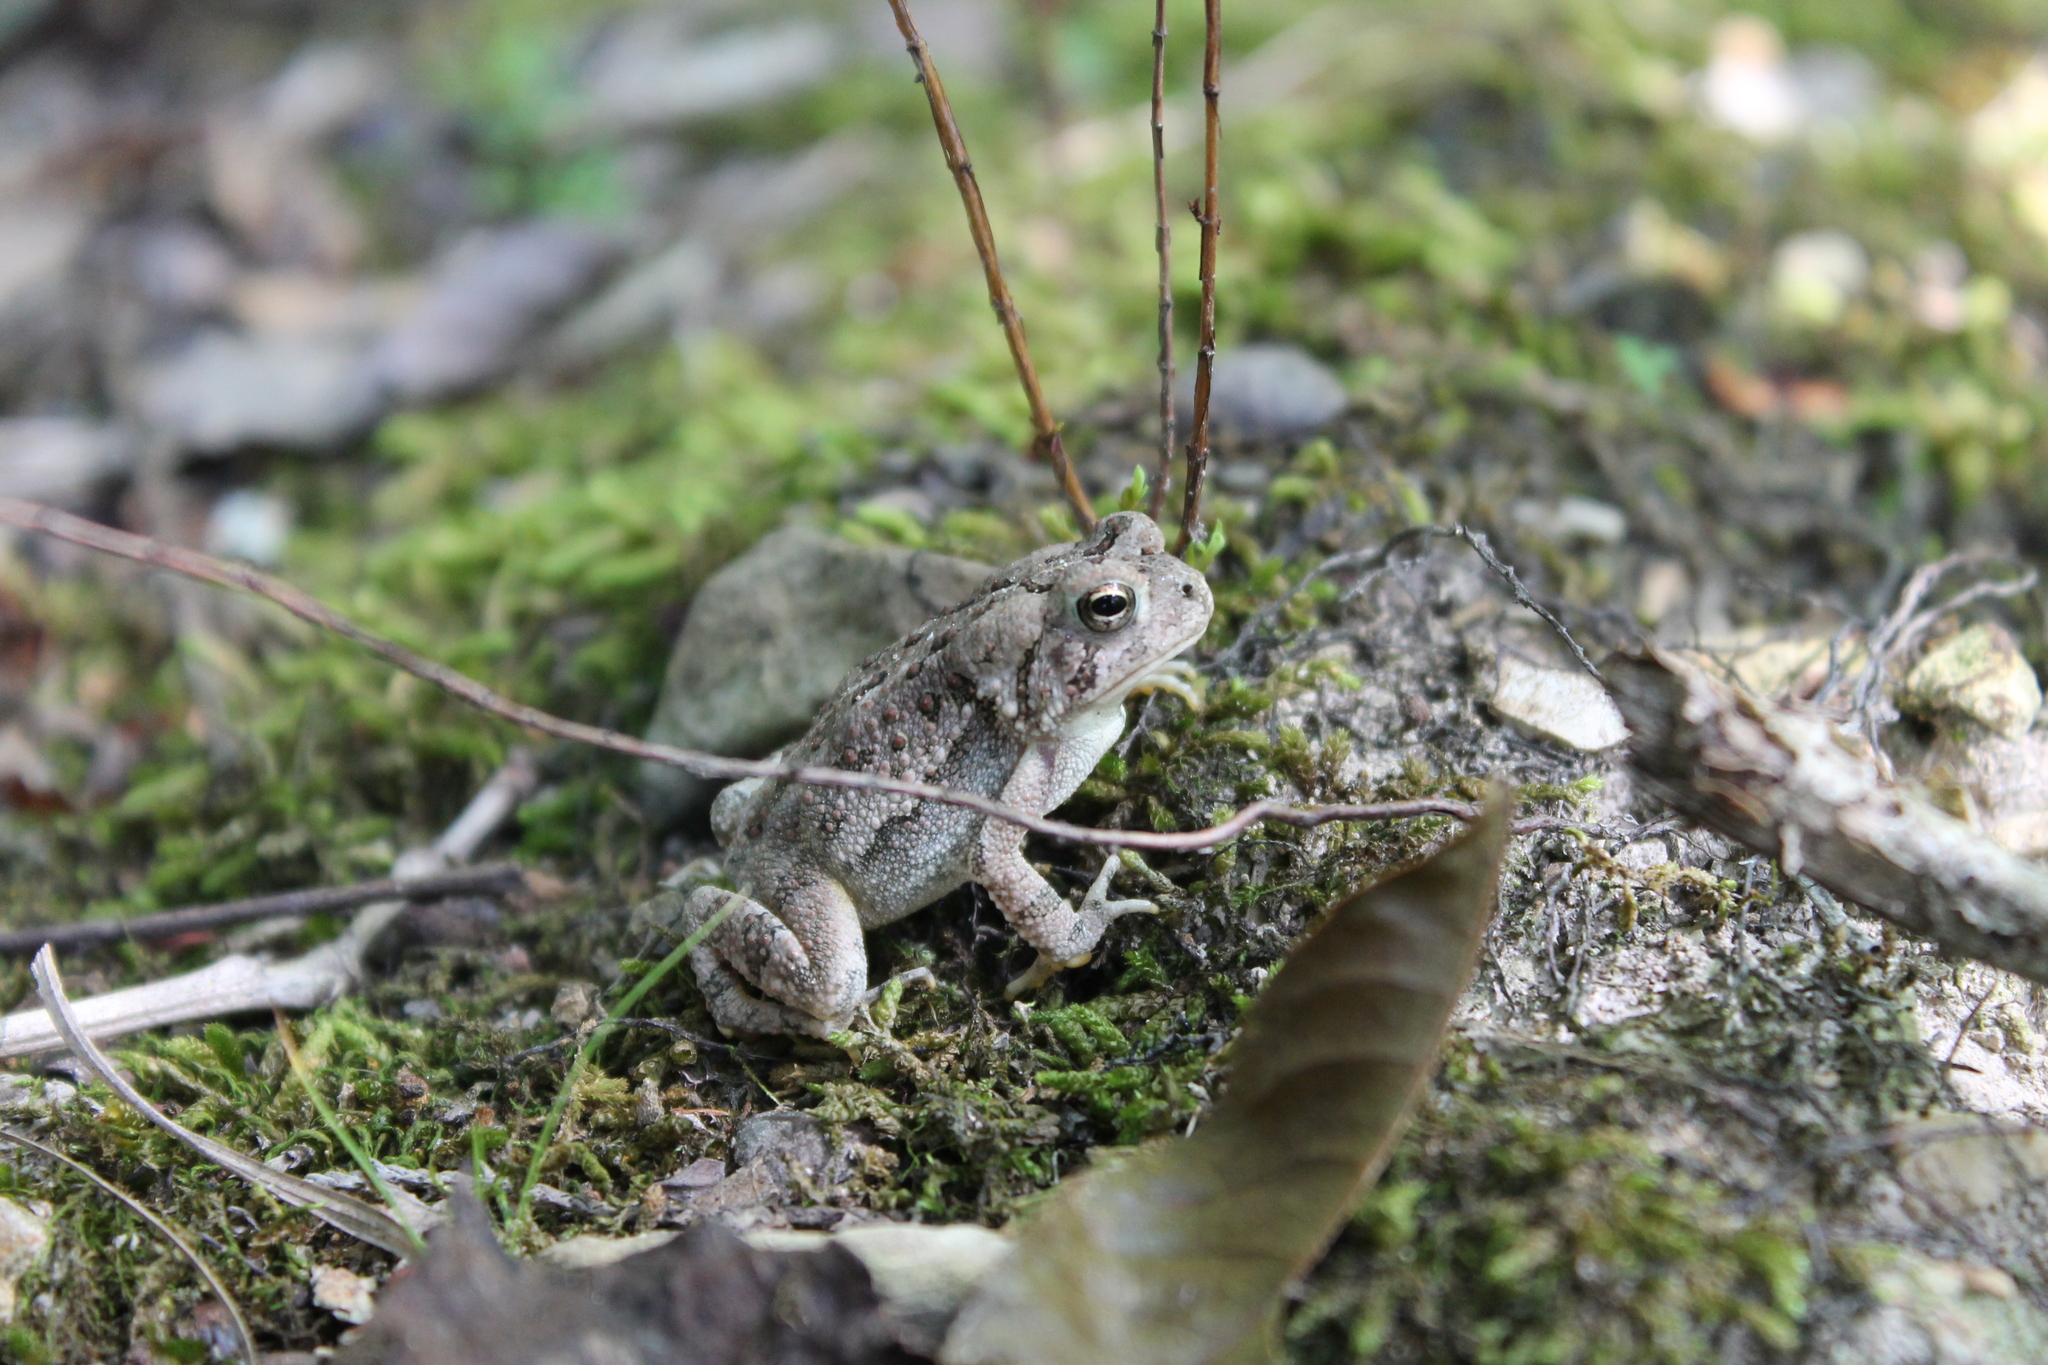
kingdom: Animalia
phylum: Chordata
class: Amphibia
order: Anura
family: Bufonidae
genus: Anaxyrus
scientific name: Anaxyrus fowleri
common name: Fowler's toad
